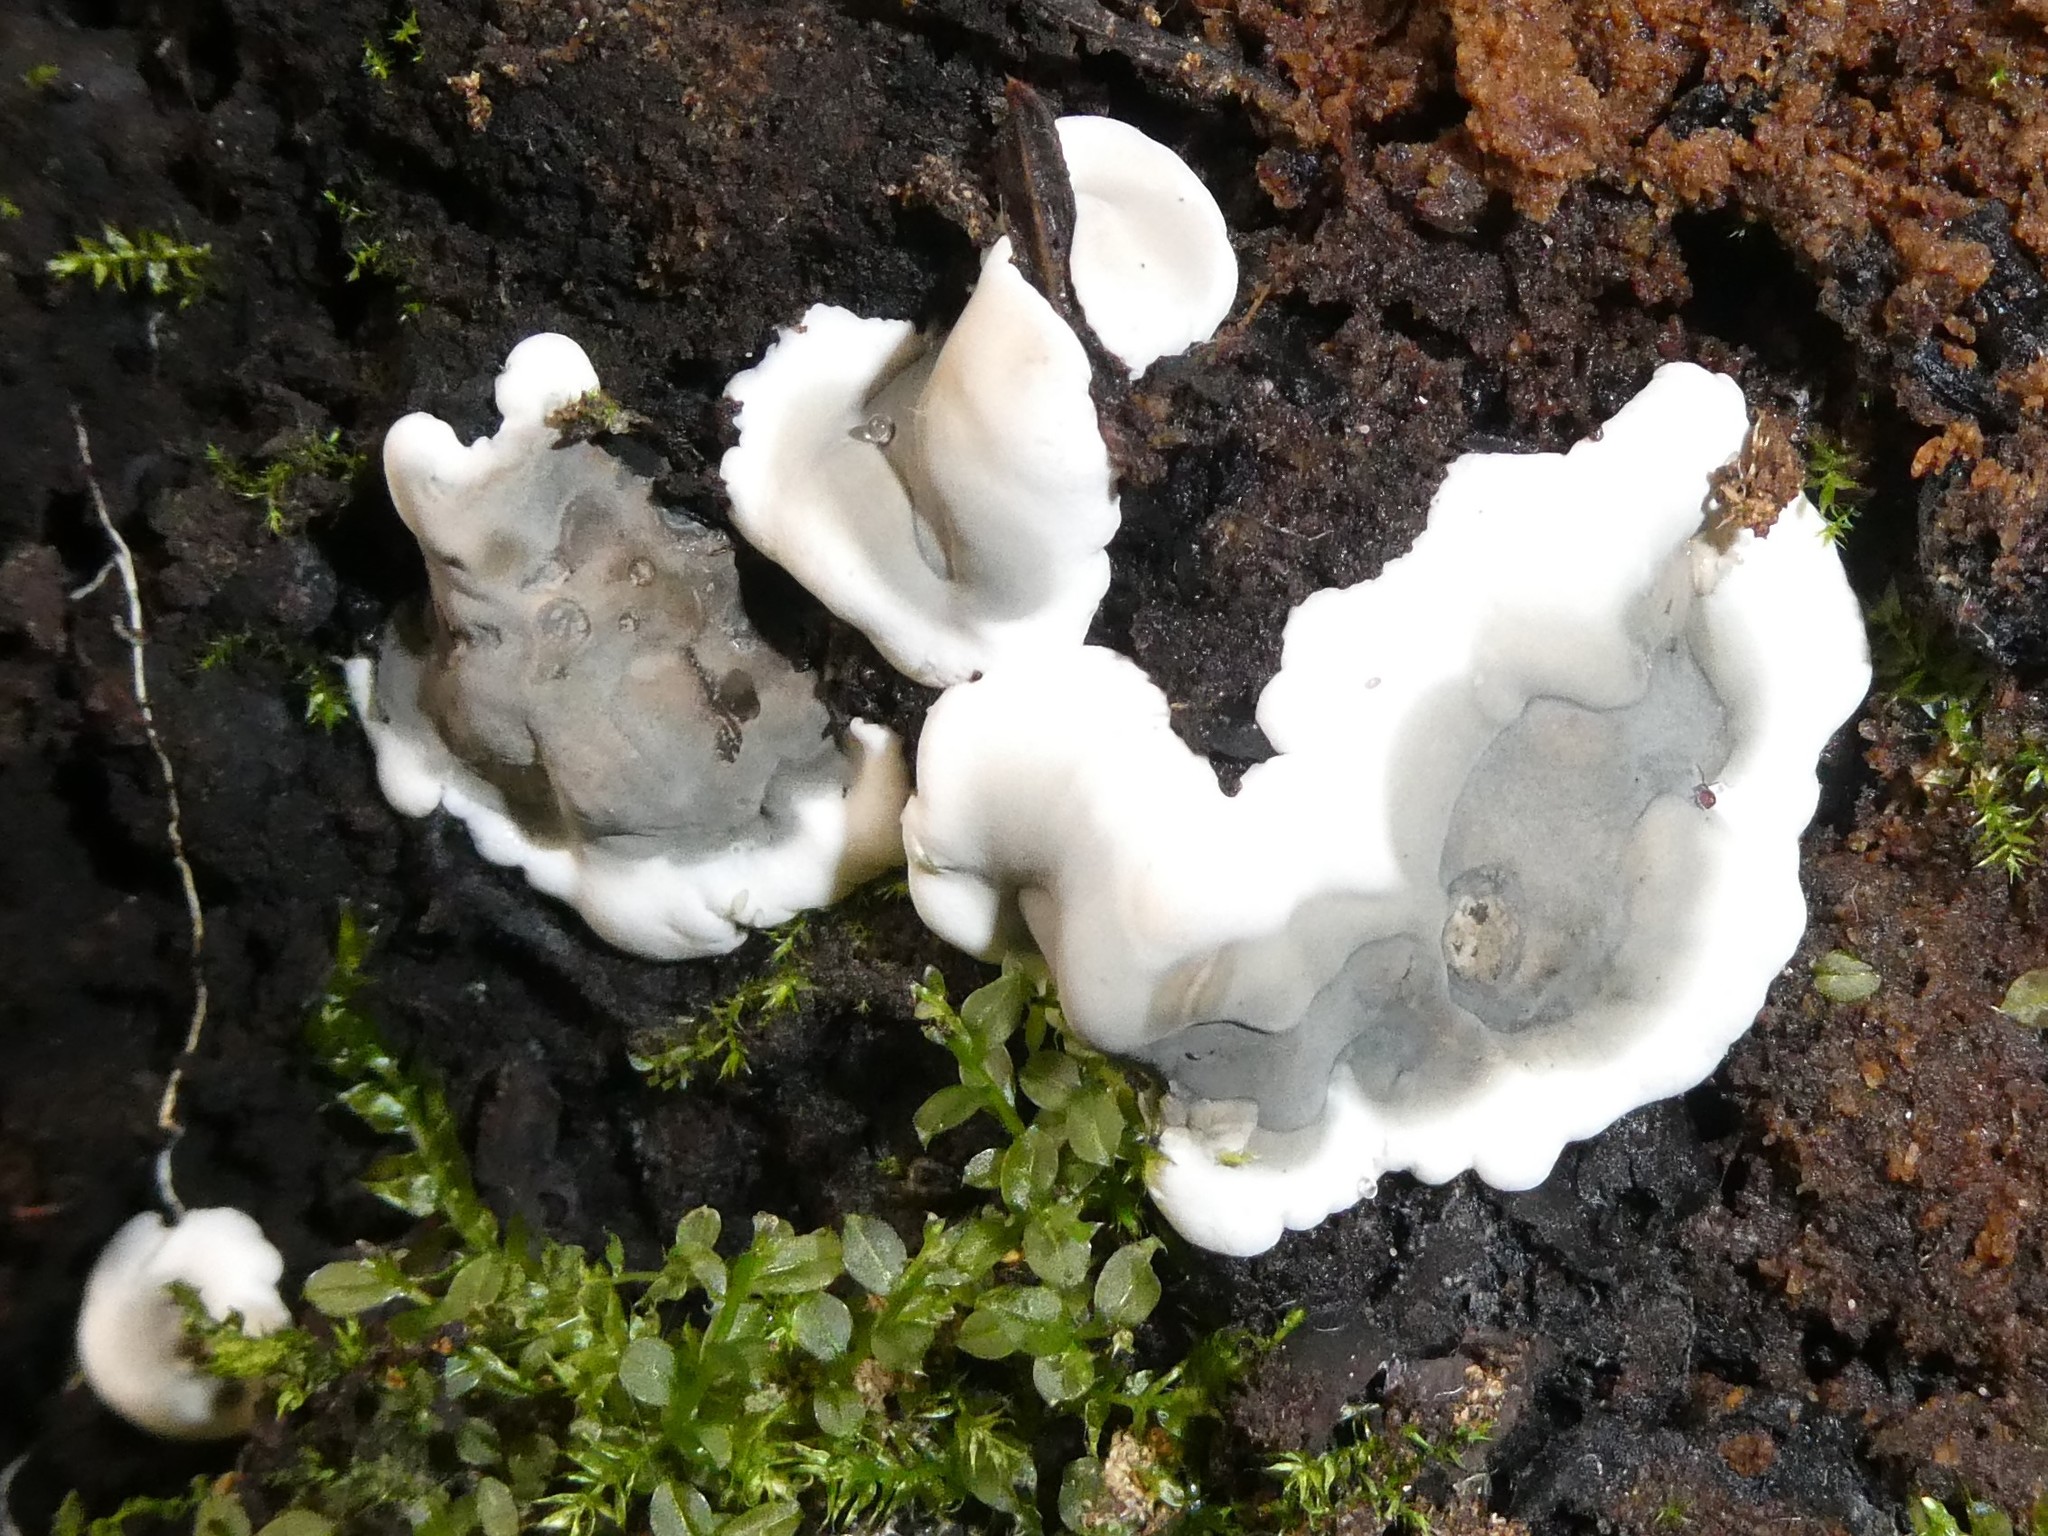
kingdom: Fungi
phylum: Ascomycota
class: Sordariomycetes
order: Xylariales
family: Xylariaceae
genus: Kretzschmaria
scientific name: Kretzschmaria deusta
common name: Brittle cinder
